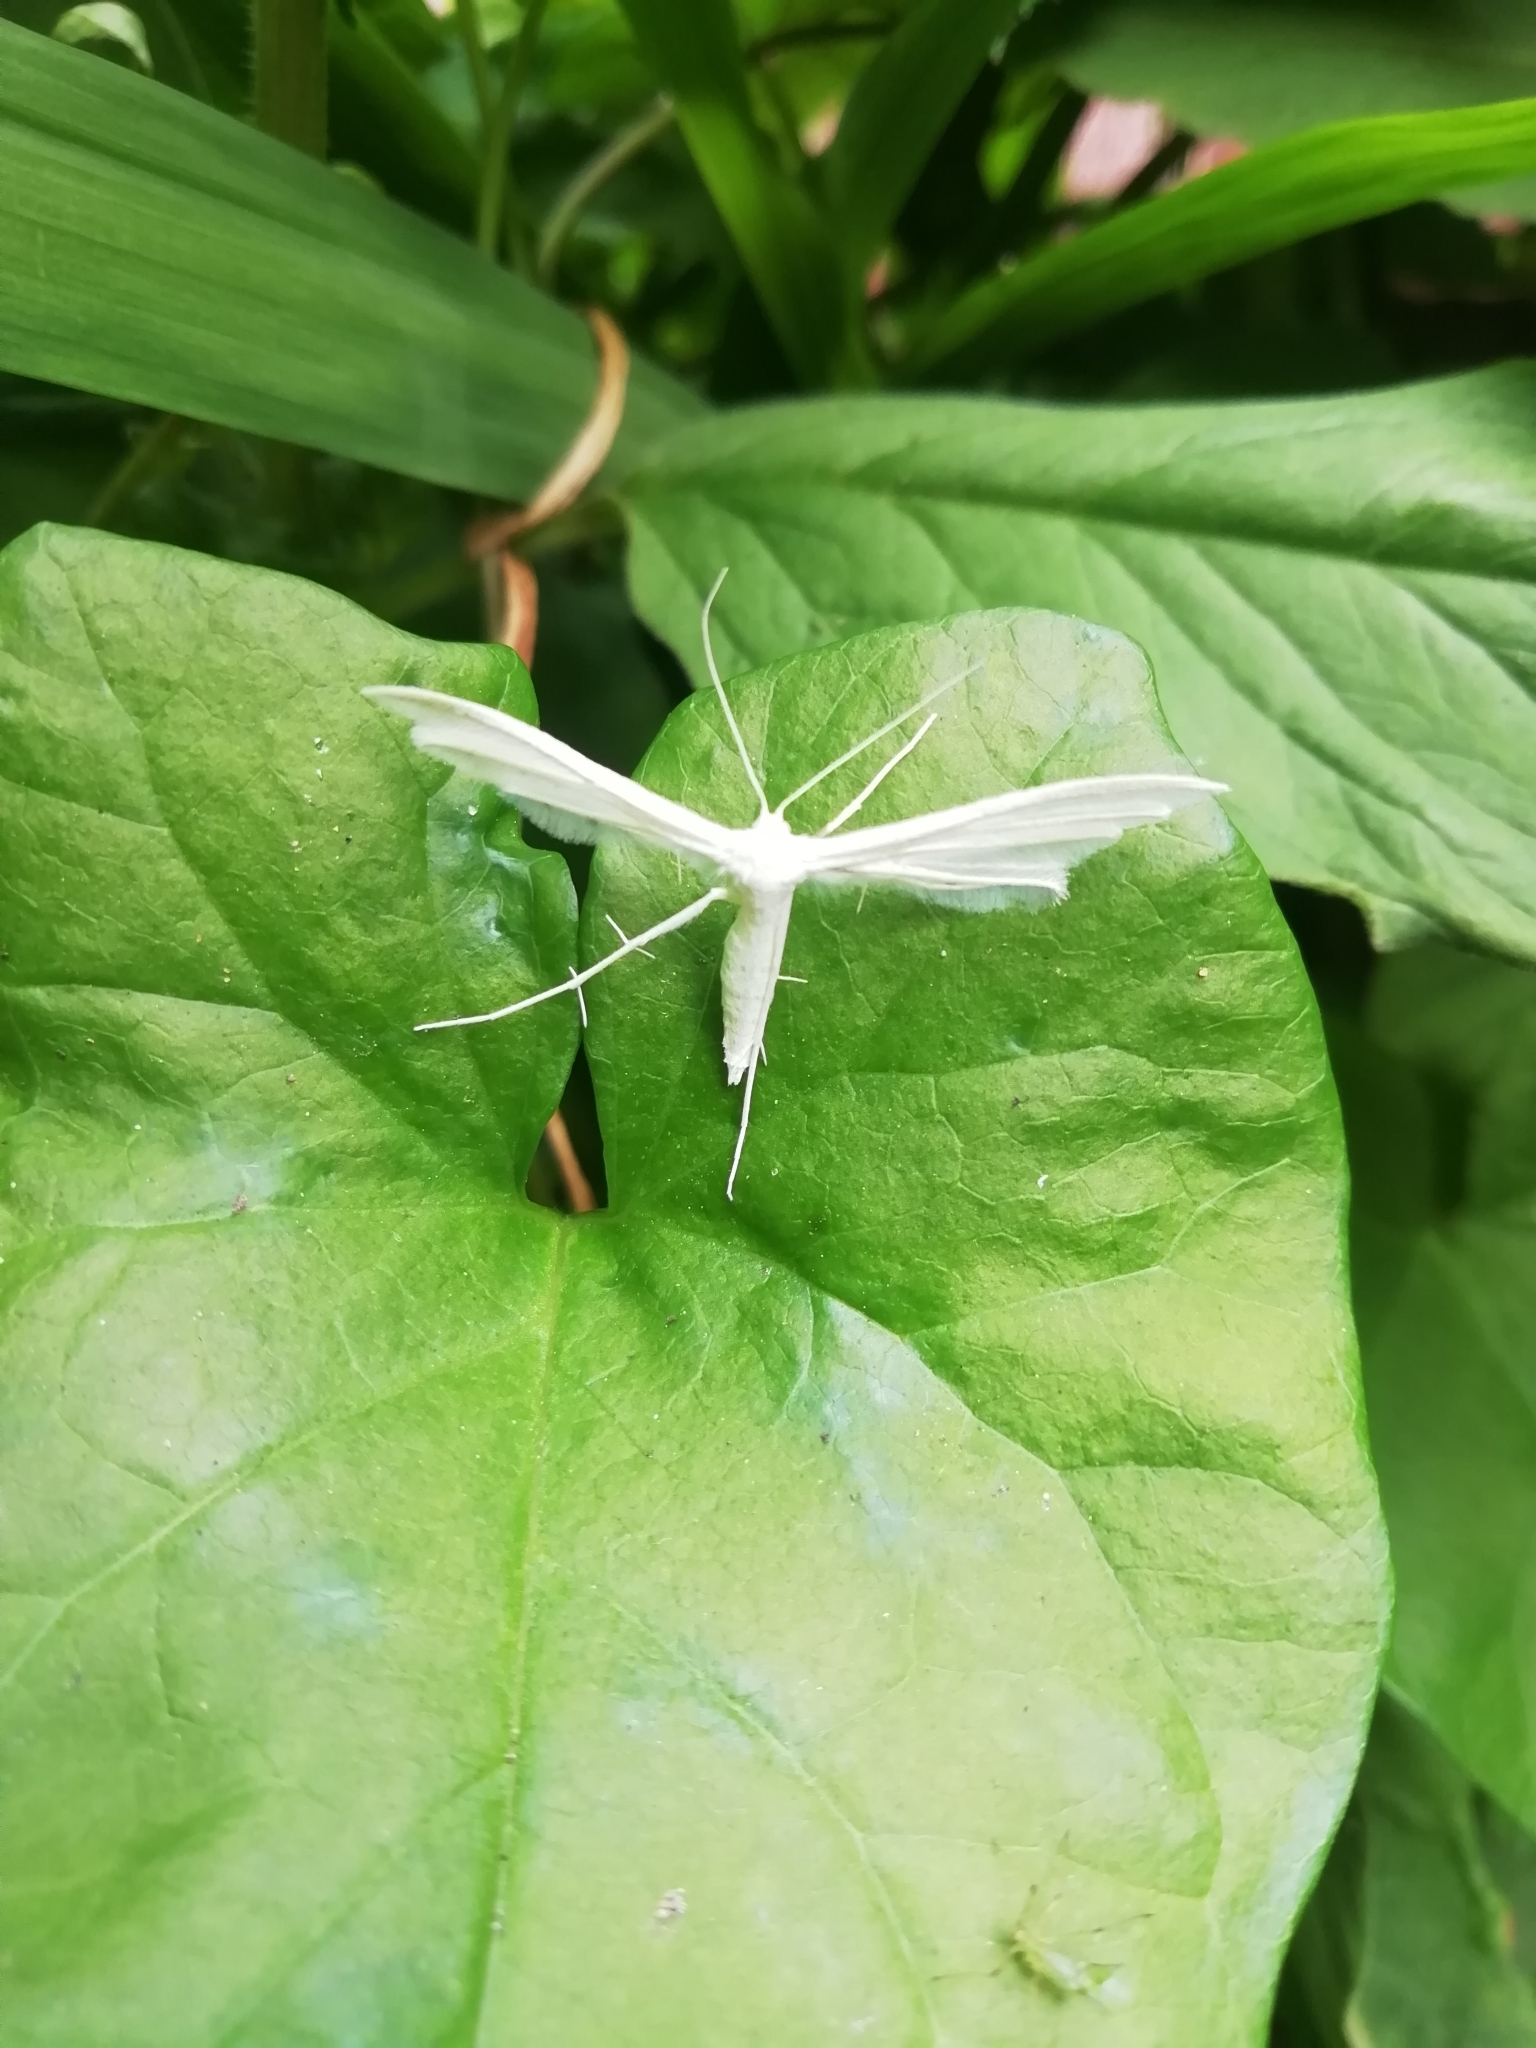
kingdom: Animalia
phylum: Arthropoda
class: Insecta
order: Lepidoptera
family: Pterophoridae
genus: Pterophorus
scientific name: Pterophorus pentadactyla
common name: White plume moth
